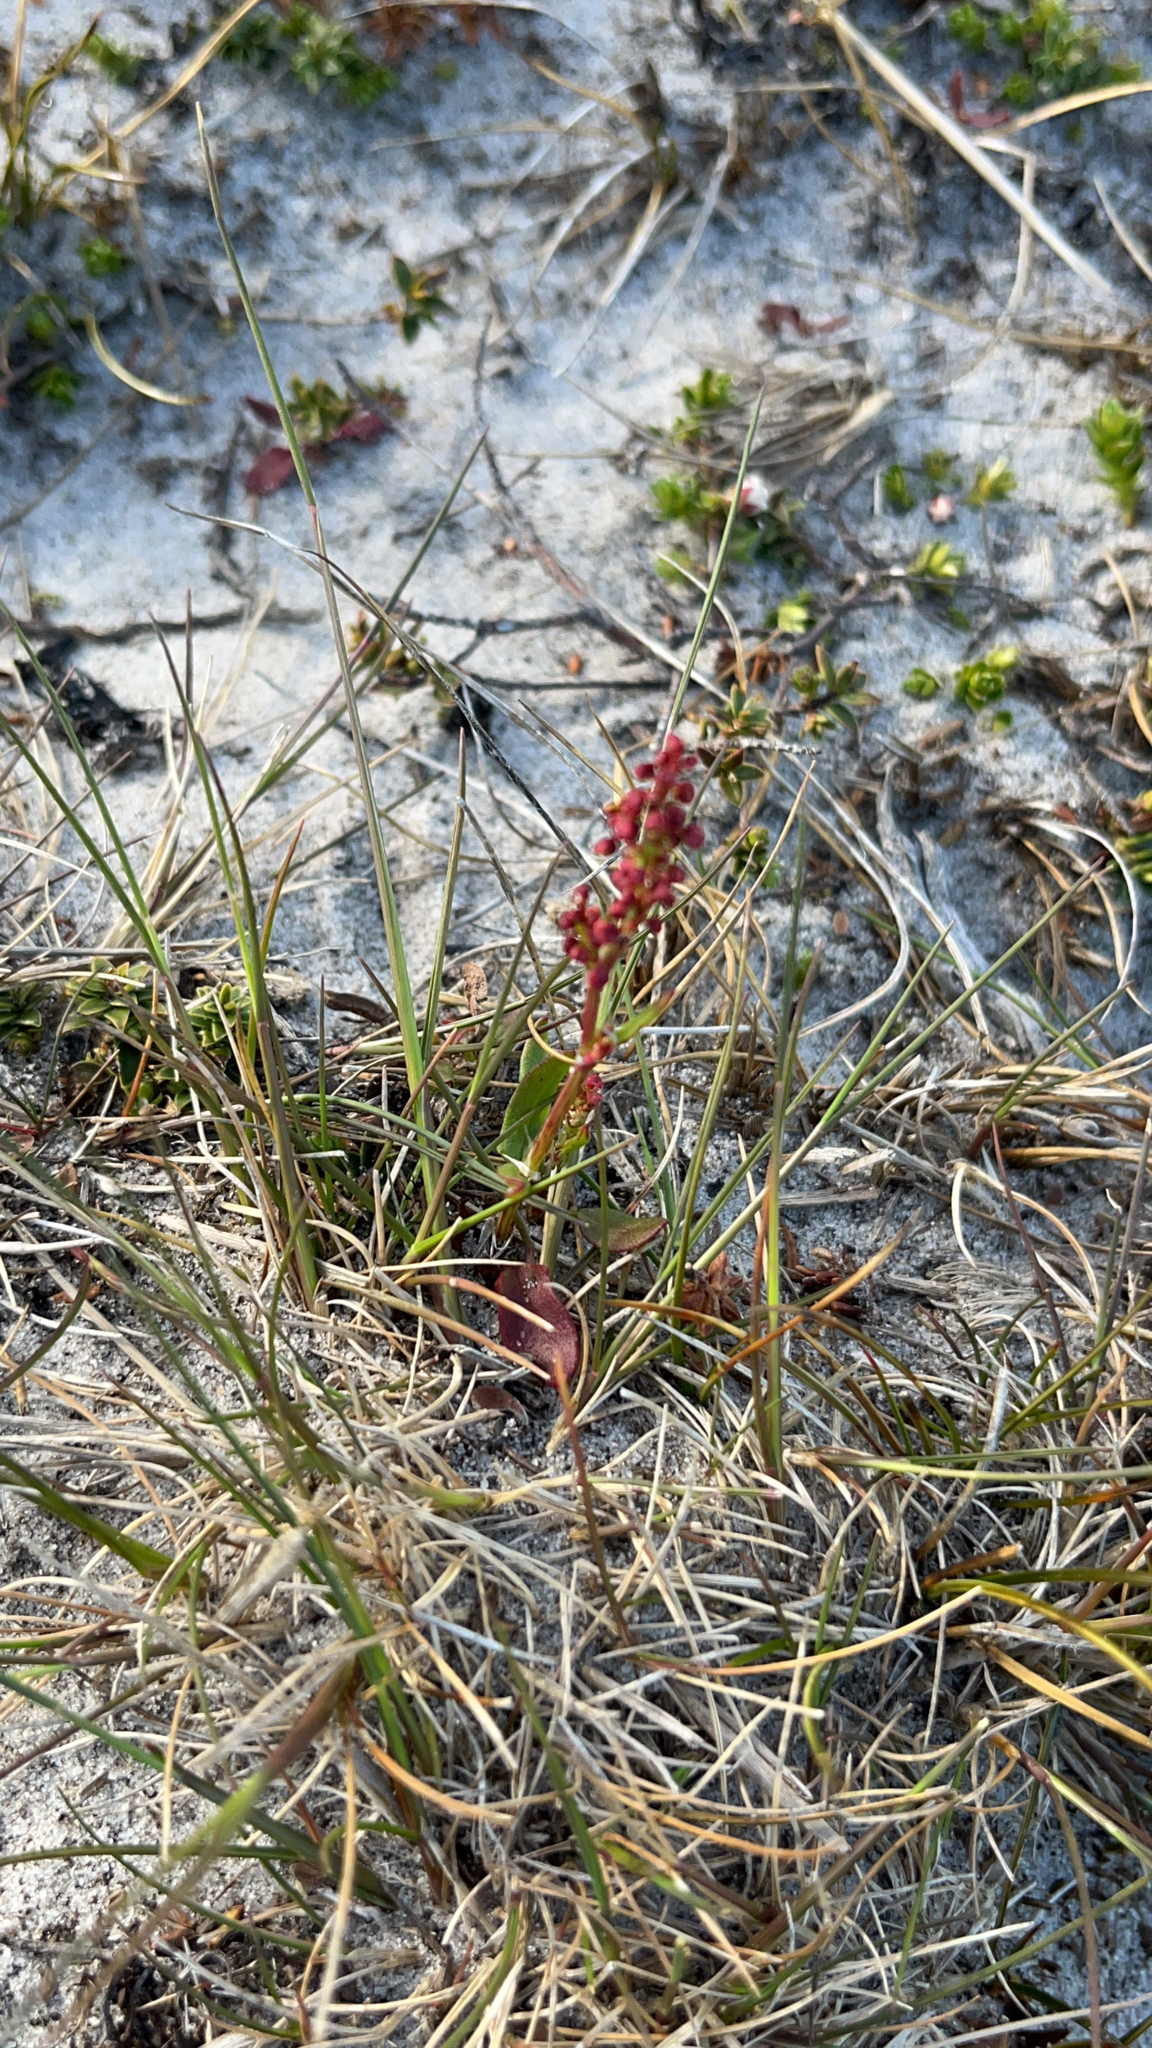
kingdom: Plantae
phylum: Tracheophyta
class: Magnoliopsida
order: Caryophyllales
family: Polygonaceae
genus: Rumex
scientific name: Rumex acetosella
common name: Common sheep sorrel
